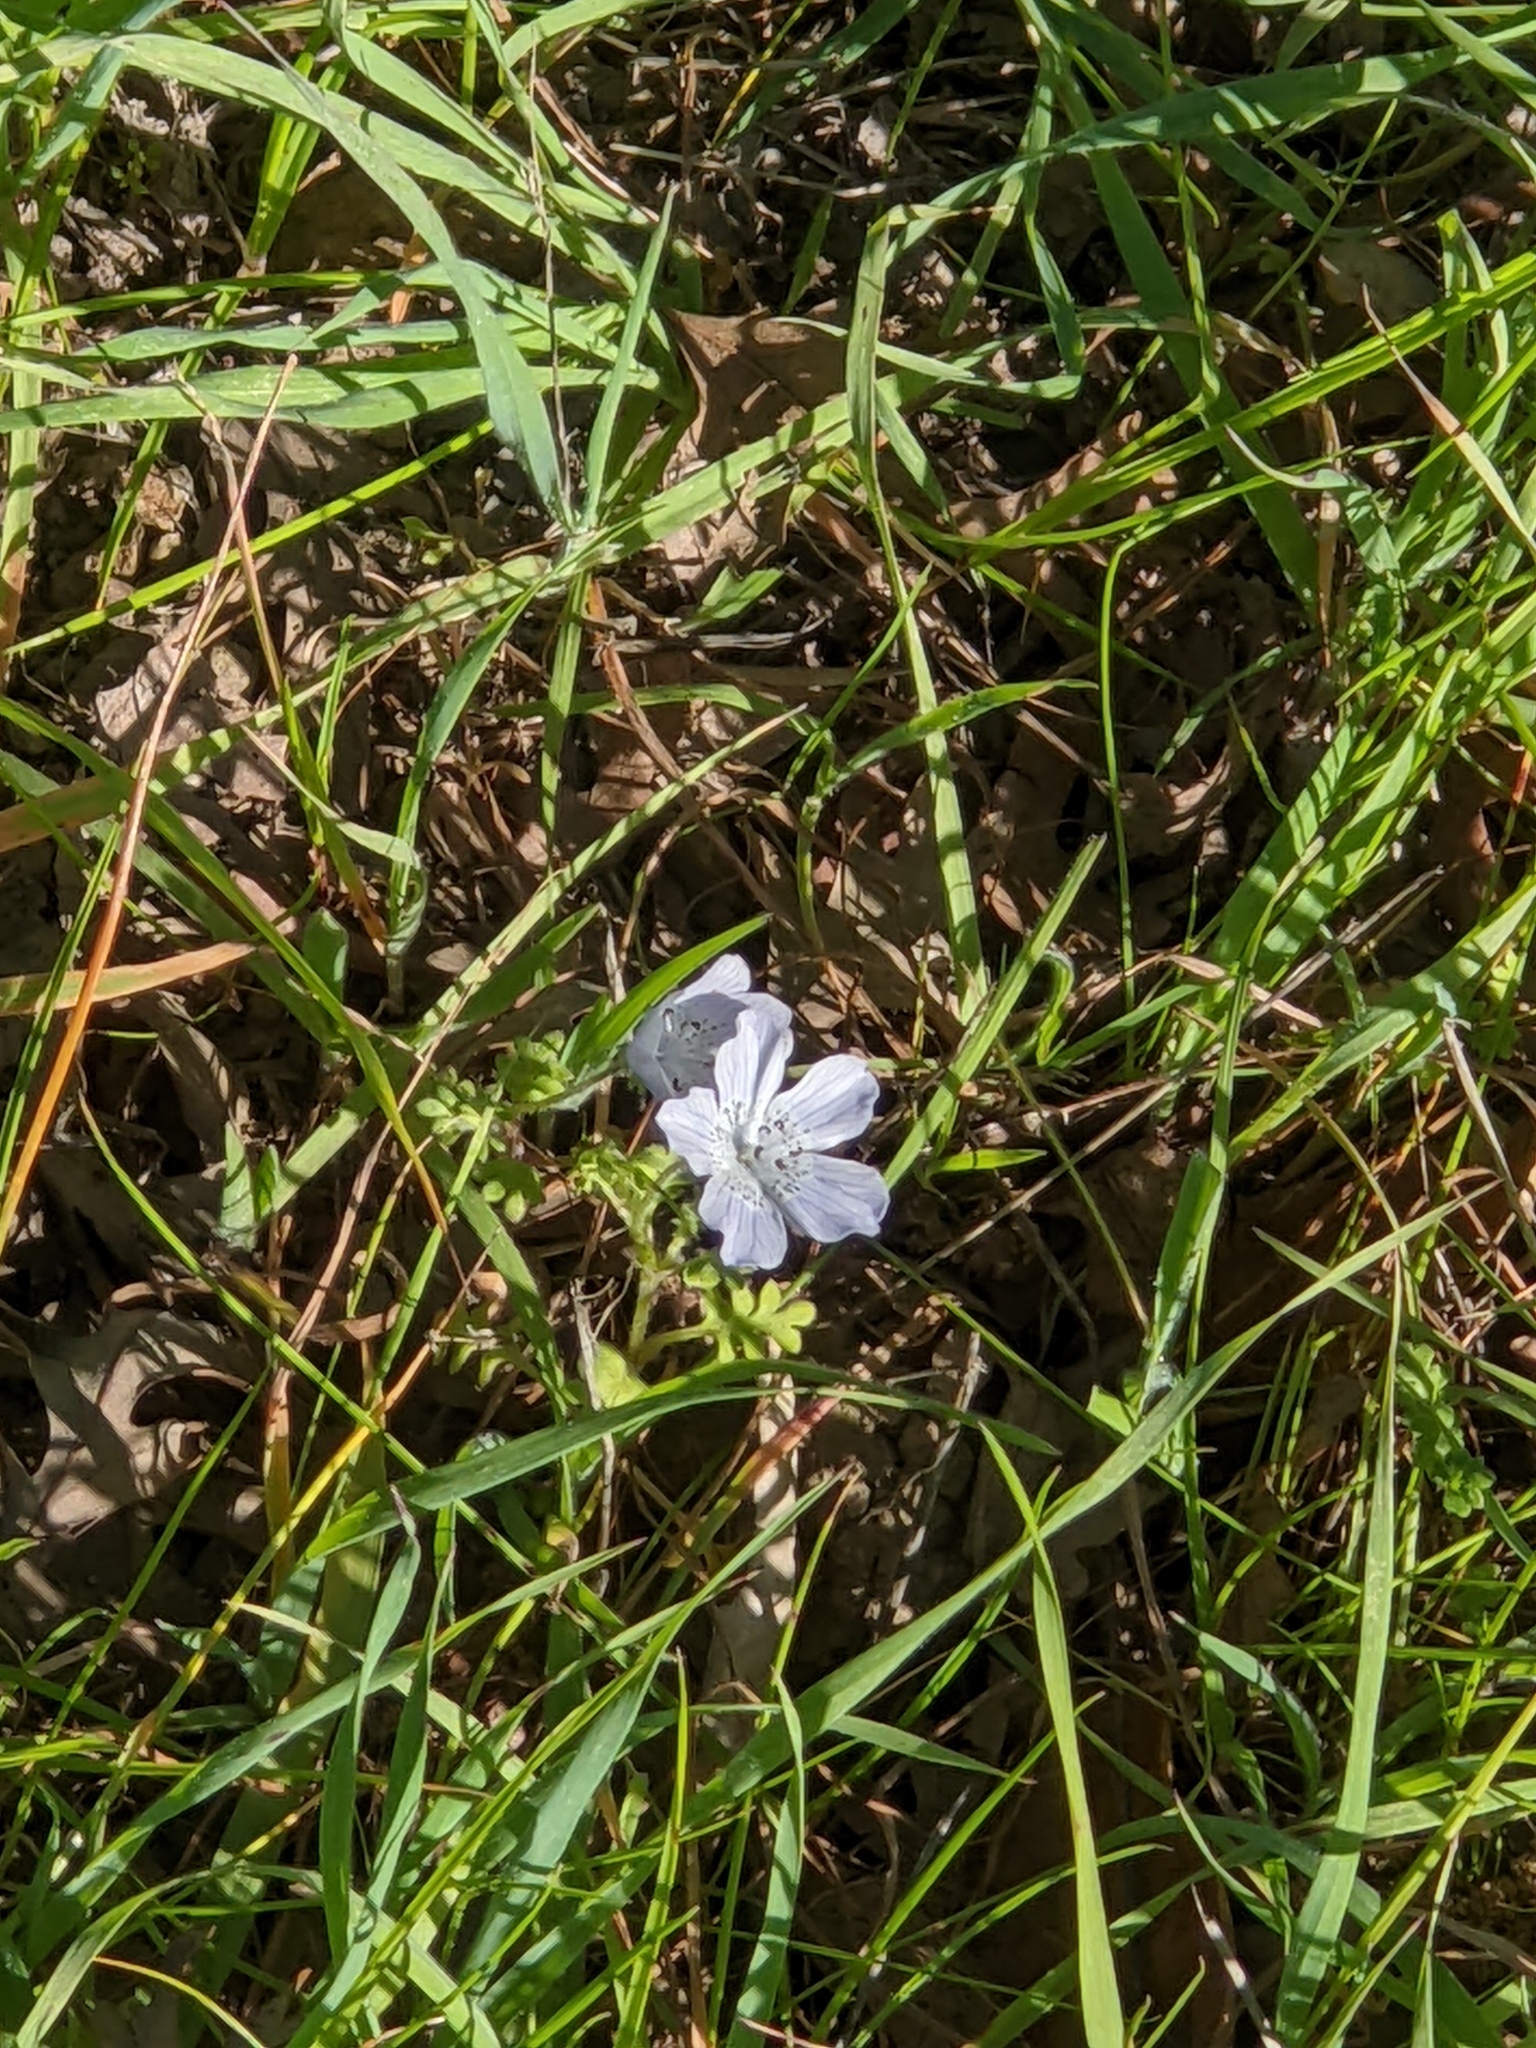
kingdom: Plantae
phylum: Tracheophyta
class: Magnoliopsida
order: Boraginales
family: Hydrophyllaceae
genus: Nemophila
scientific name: Nemophila menziesii
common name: Baby's-blue-eyes
